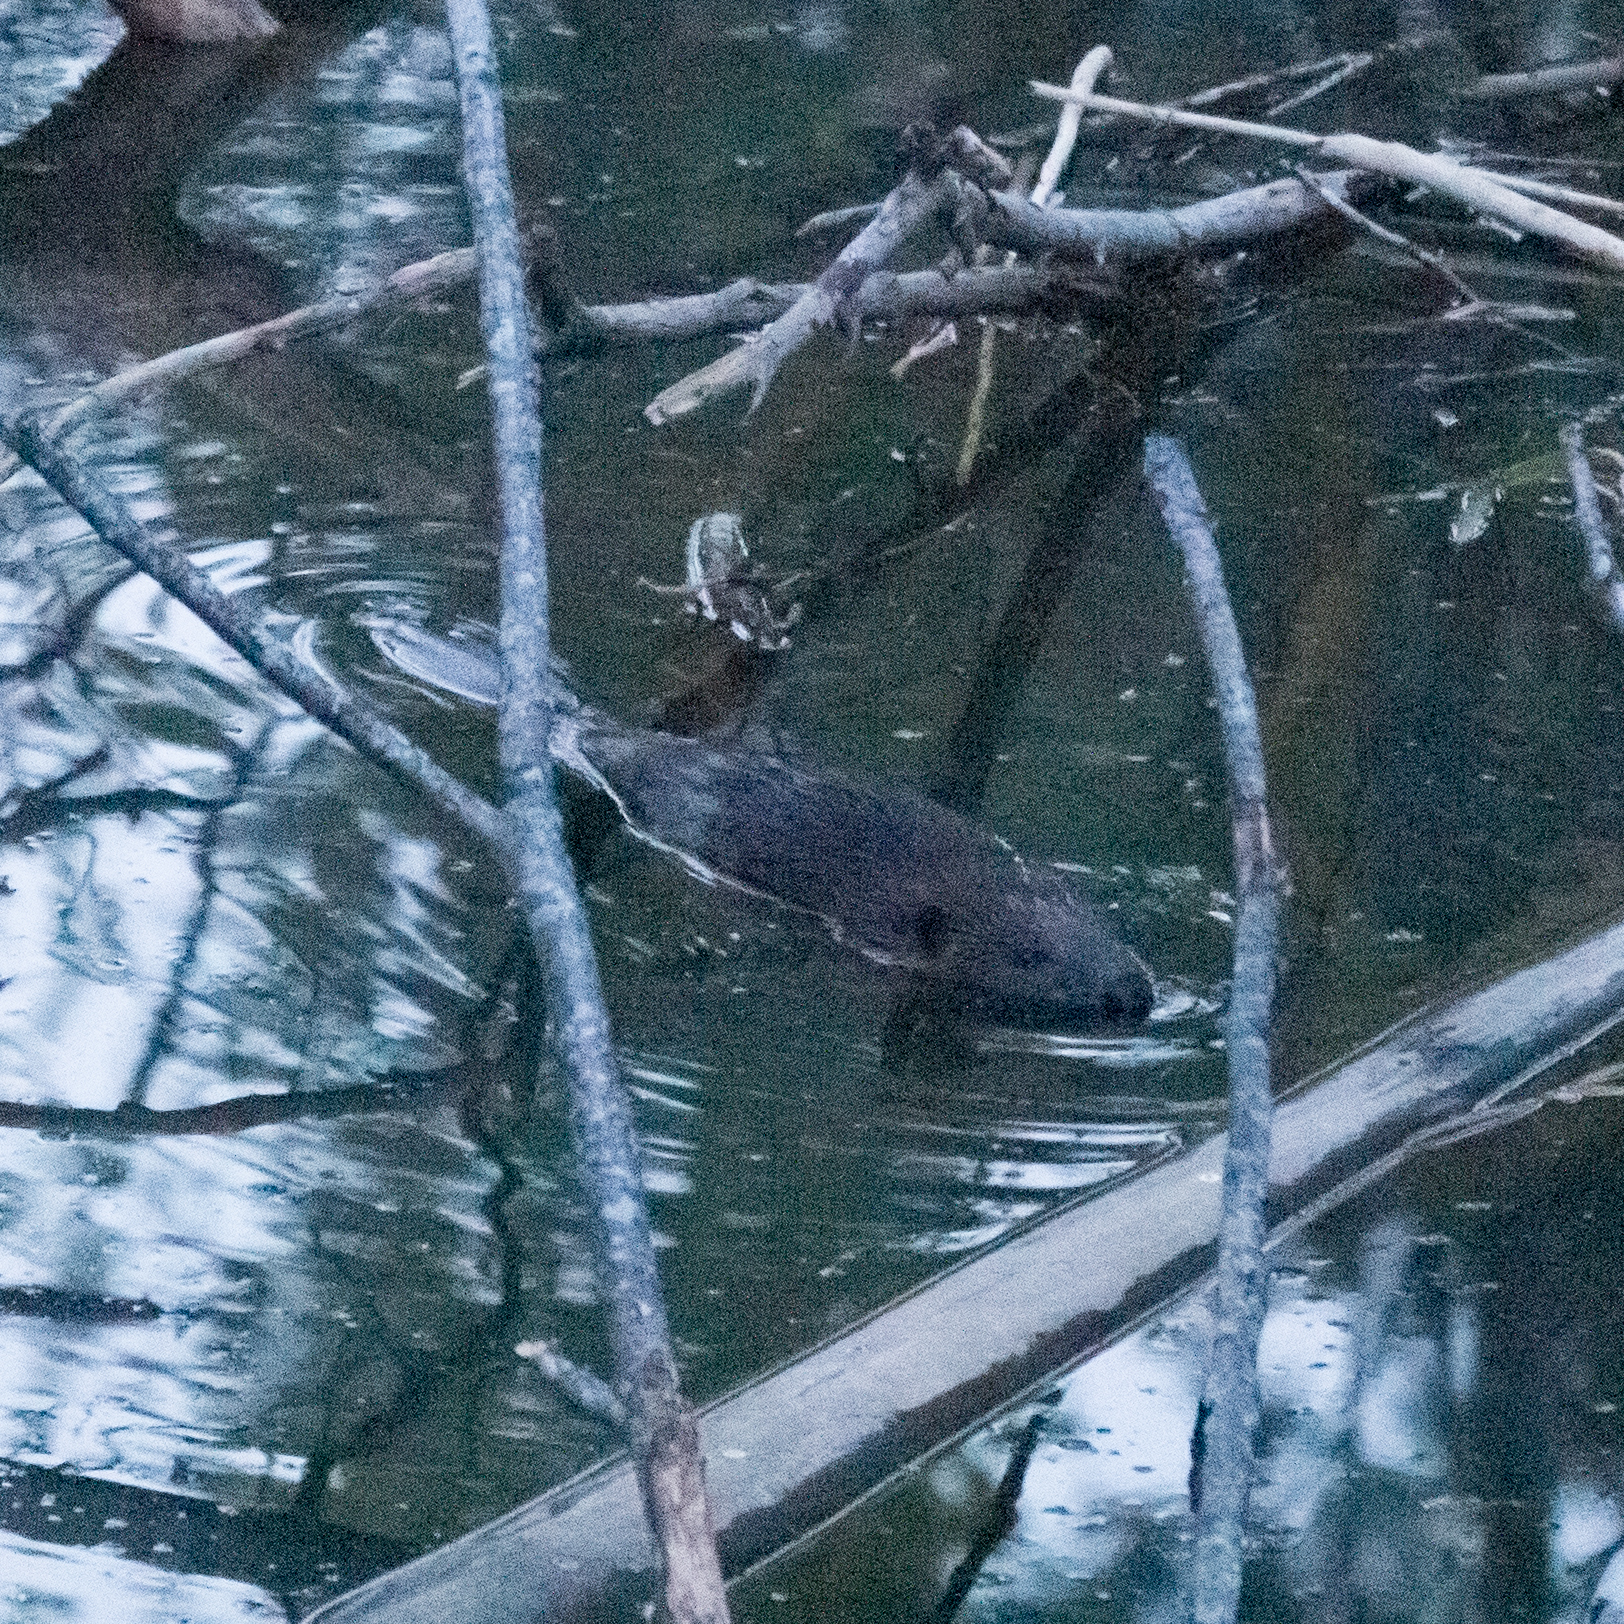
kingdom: Animalia
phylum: Chordata
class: Mammalia
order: Rodentia
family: Castoridae
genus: Castor
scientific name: Castor fiber
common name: Eurasian beaver
